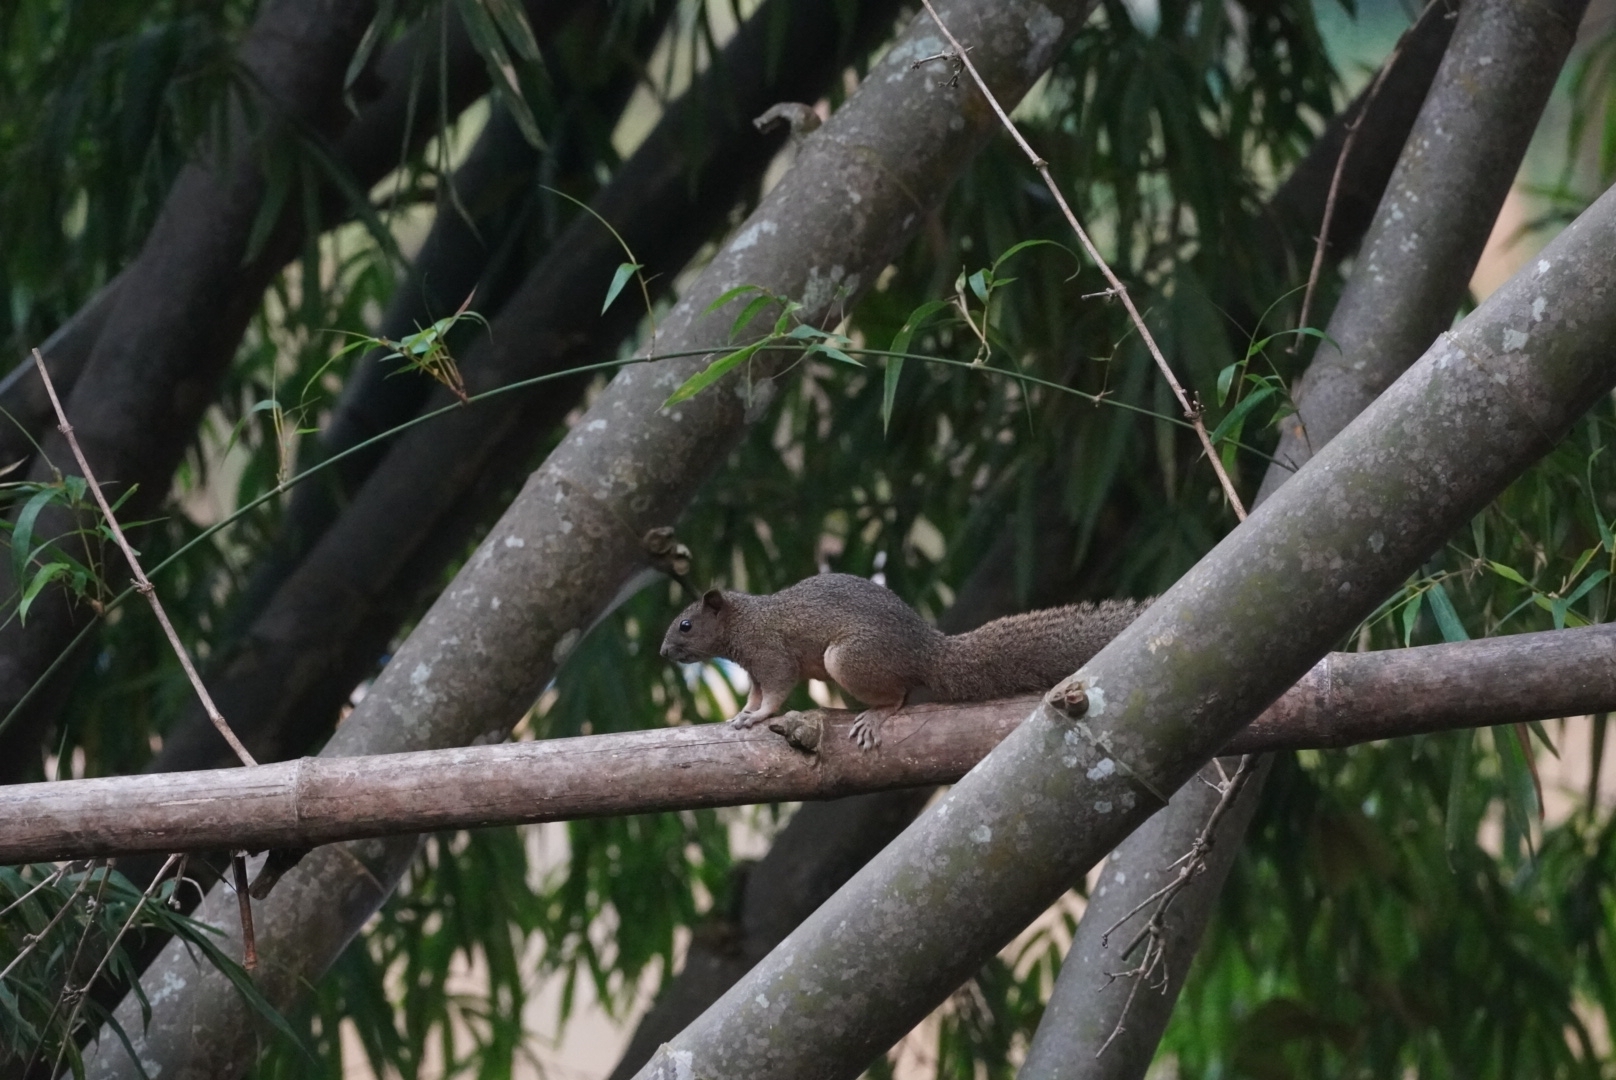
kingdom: Animalia
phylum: Chordata
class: Mammalia
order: Rodentia
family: Sciuridae
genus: Callosciurus
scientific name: Callosciurus erythraeus
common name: Pallas's squirrel
